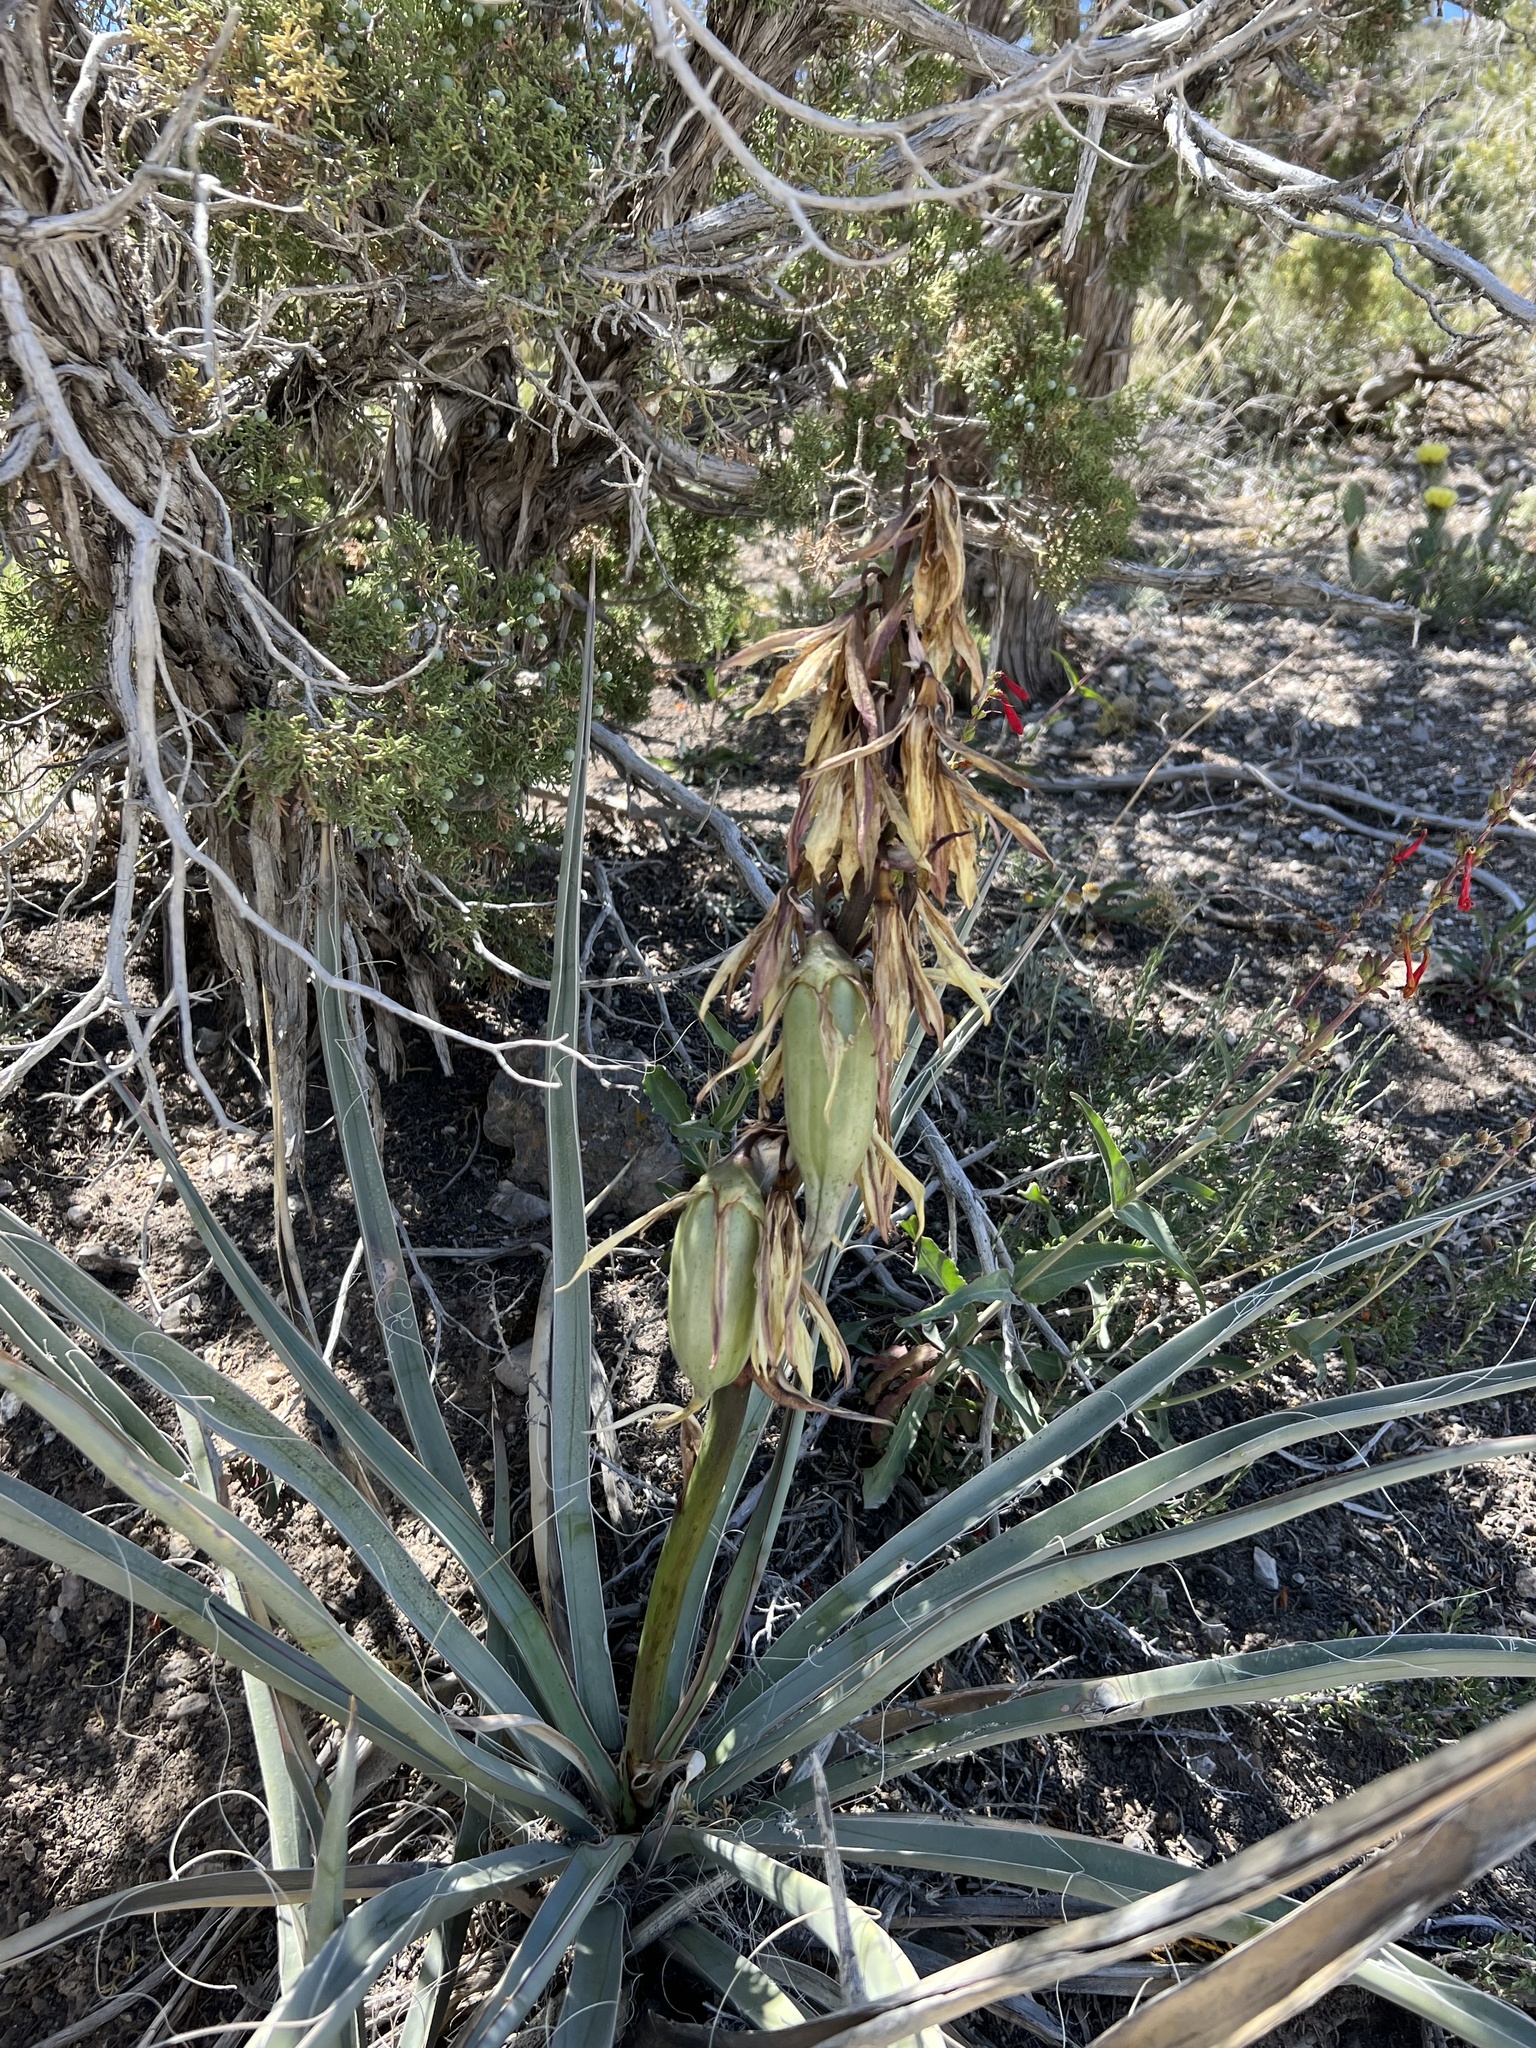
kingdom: Plantae
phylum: Tracheophyta
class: Liliopsida
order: Asparagales
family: Asparagaceae
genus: Yucca
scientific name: Yucca baccata
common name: Banana yucca
